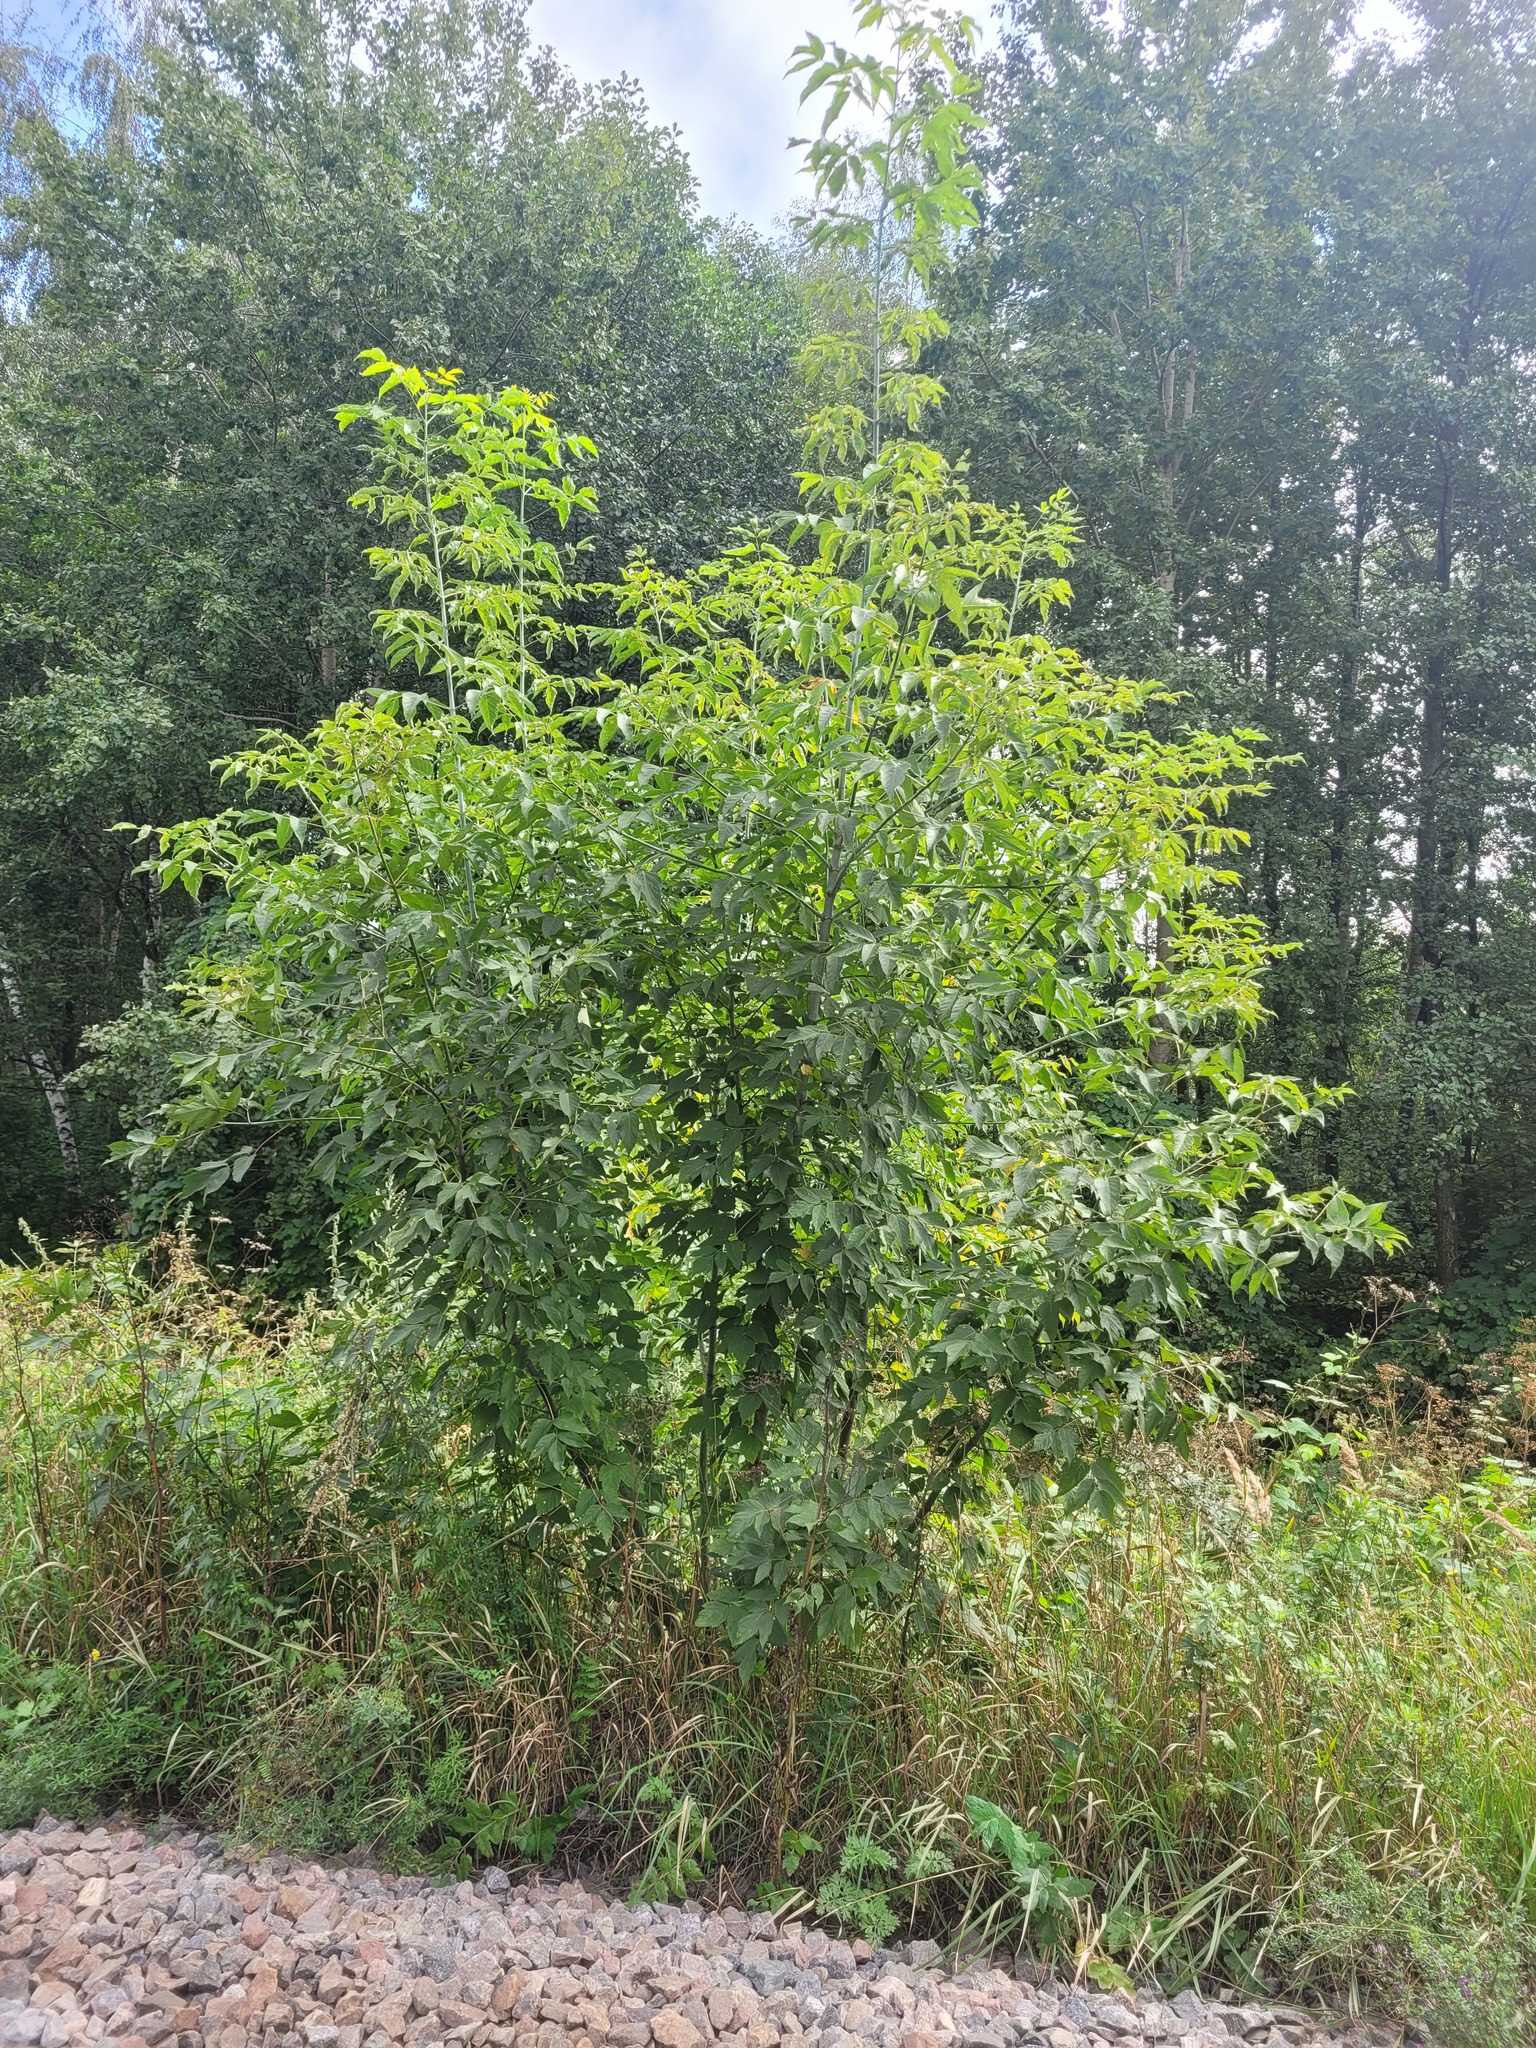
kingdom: Plantae
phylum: Tracheophyta
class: Magnoliopsida
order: Sapindales
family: Sapindaceae
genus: Acer
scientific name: Acer negundo
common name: Ashleaf maple
